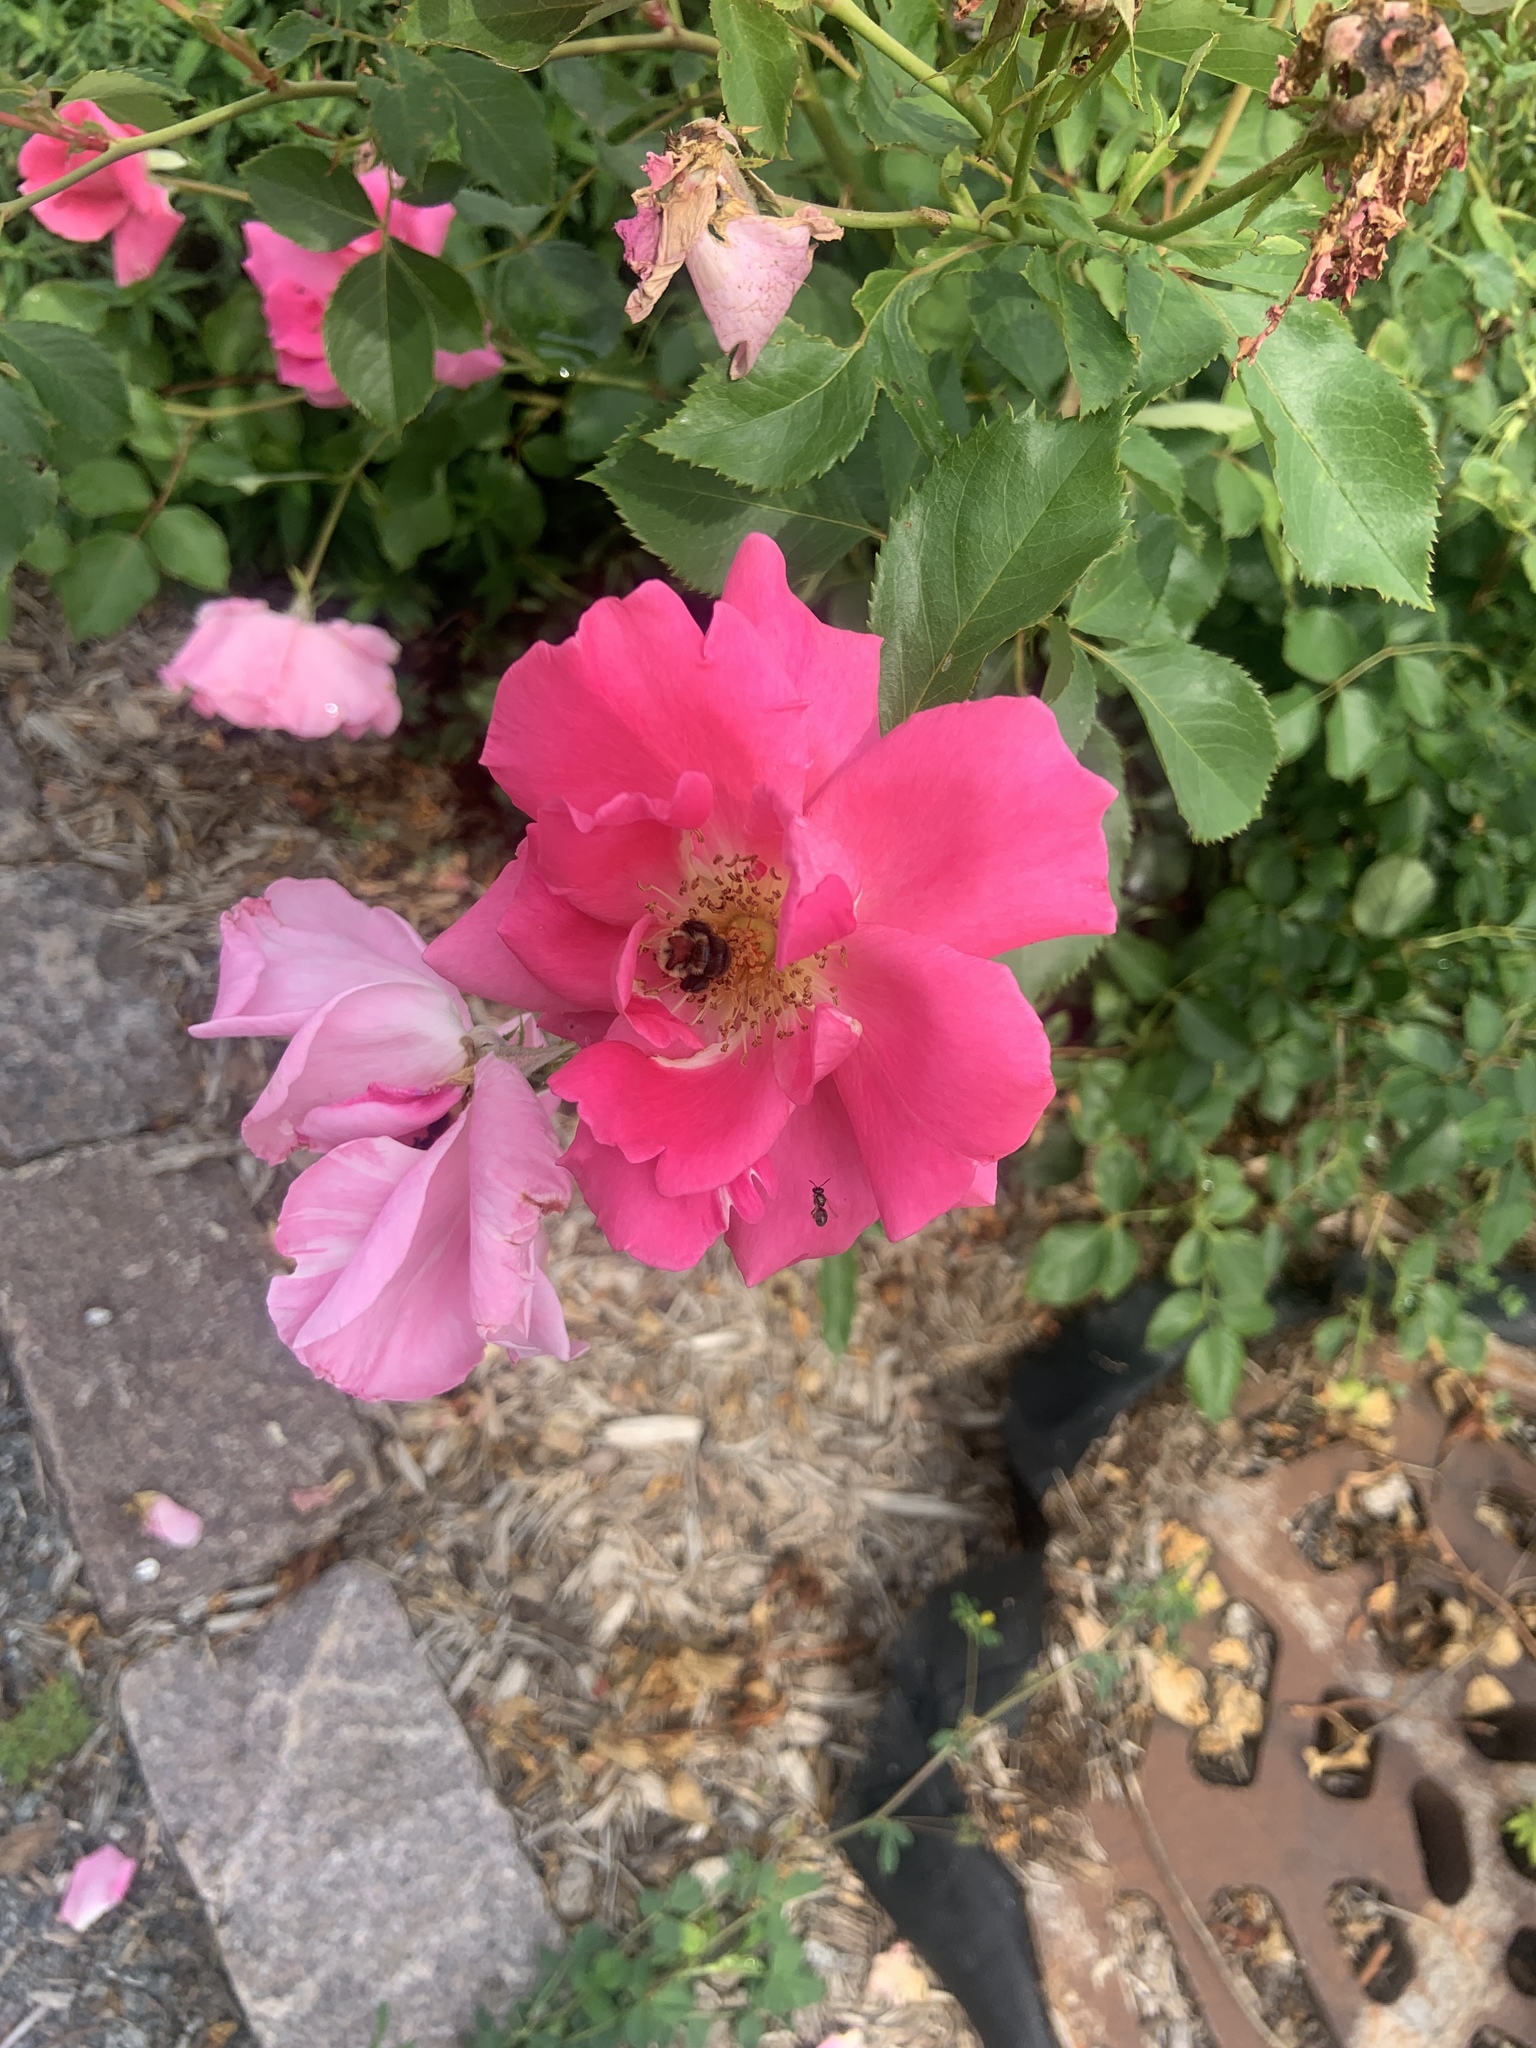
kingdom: Animalia
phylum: Arthropoda
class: Insecta
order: Hymenoptera
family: Apidae
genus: Bombus
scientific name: Bombus impatiens
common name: Common eastern bumble bee
